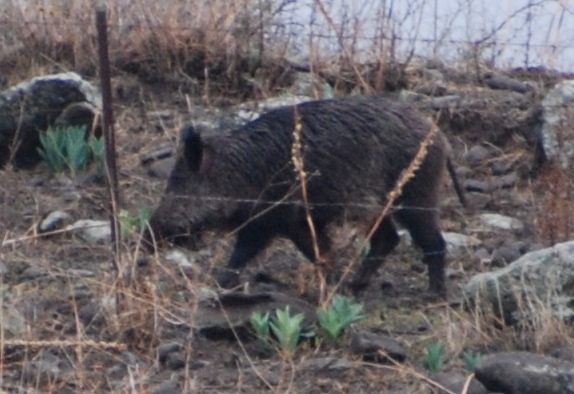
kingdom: Animalia
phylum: Chordata
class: Mammalia
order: Artiodactyla
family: Suidae
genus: Sus
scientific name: Sus scrofa
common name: Wild boar
